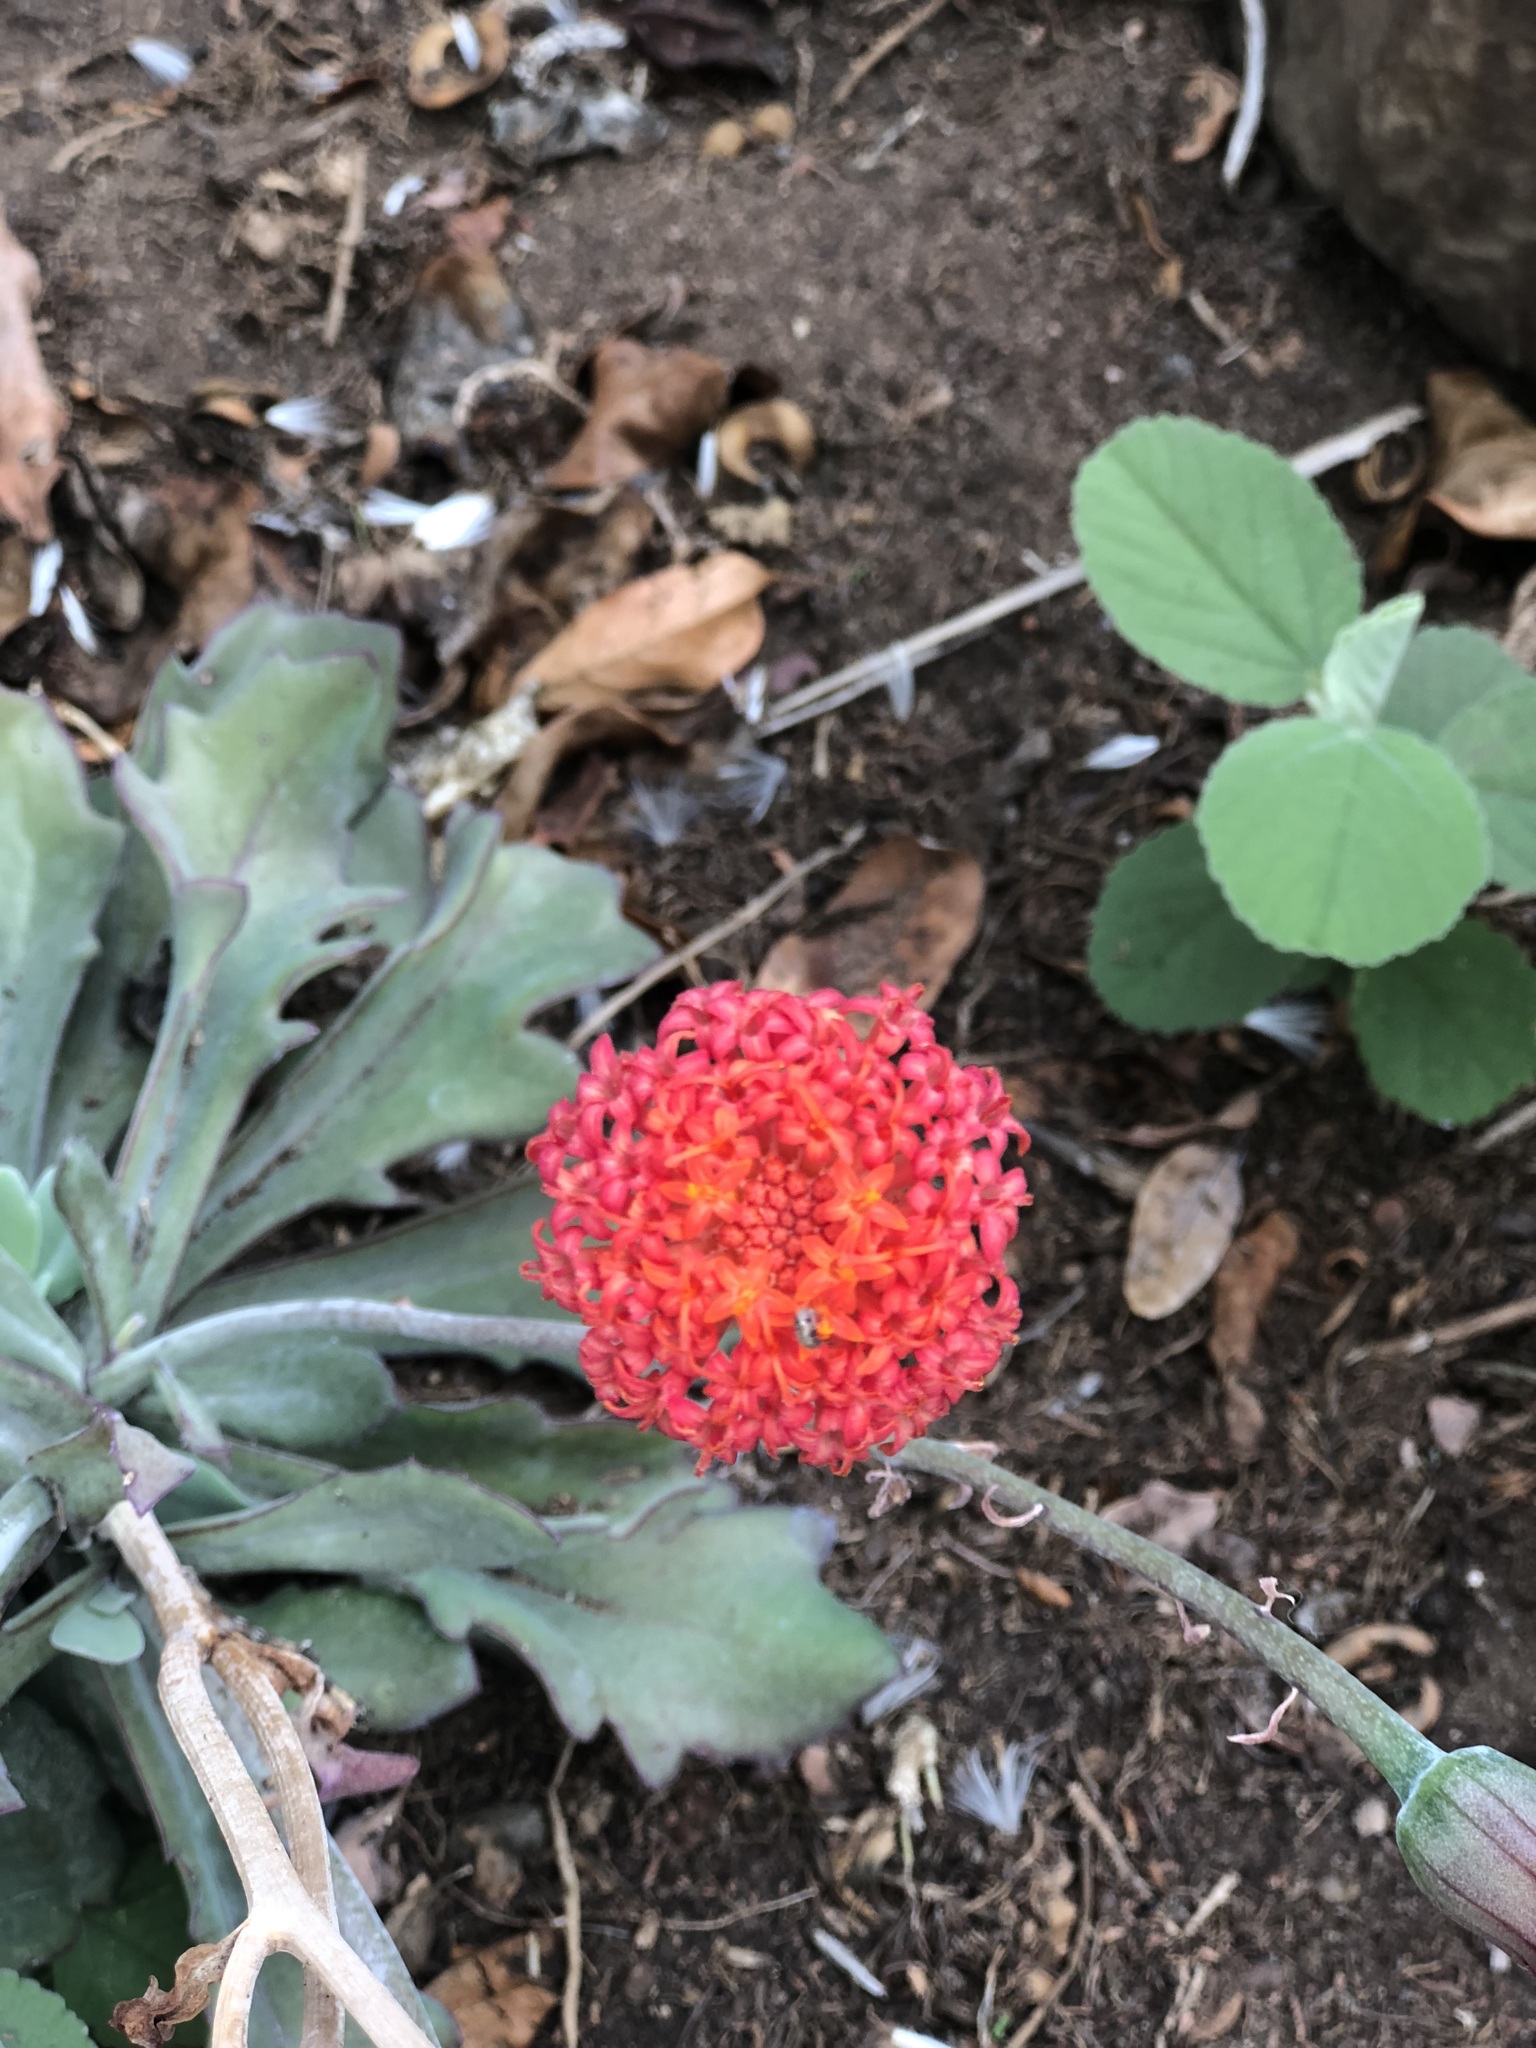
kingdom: Plantae
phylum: Tracheophyta
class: Magnoliopsida
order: Asterales
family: Asteraceae
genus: Kleinia
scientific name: Kleinia fulgens
